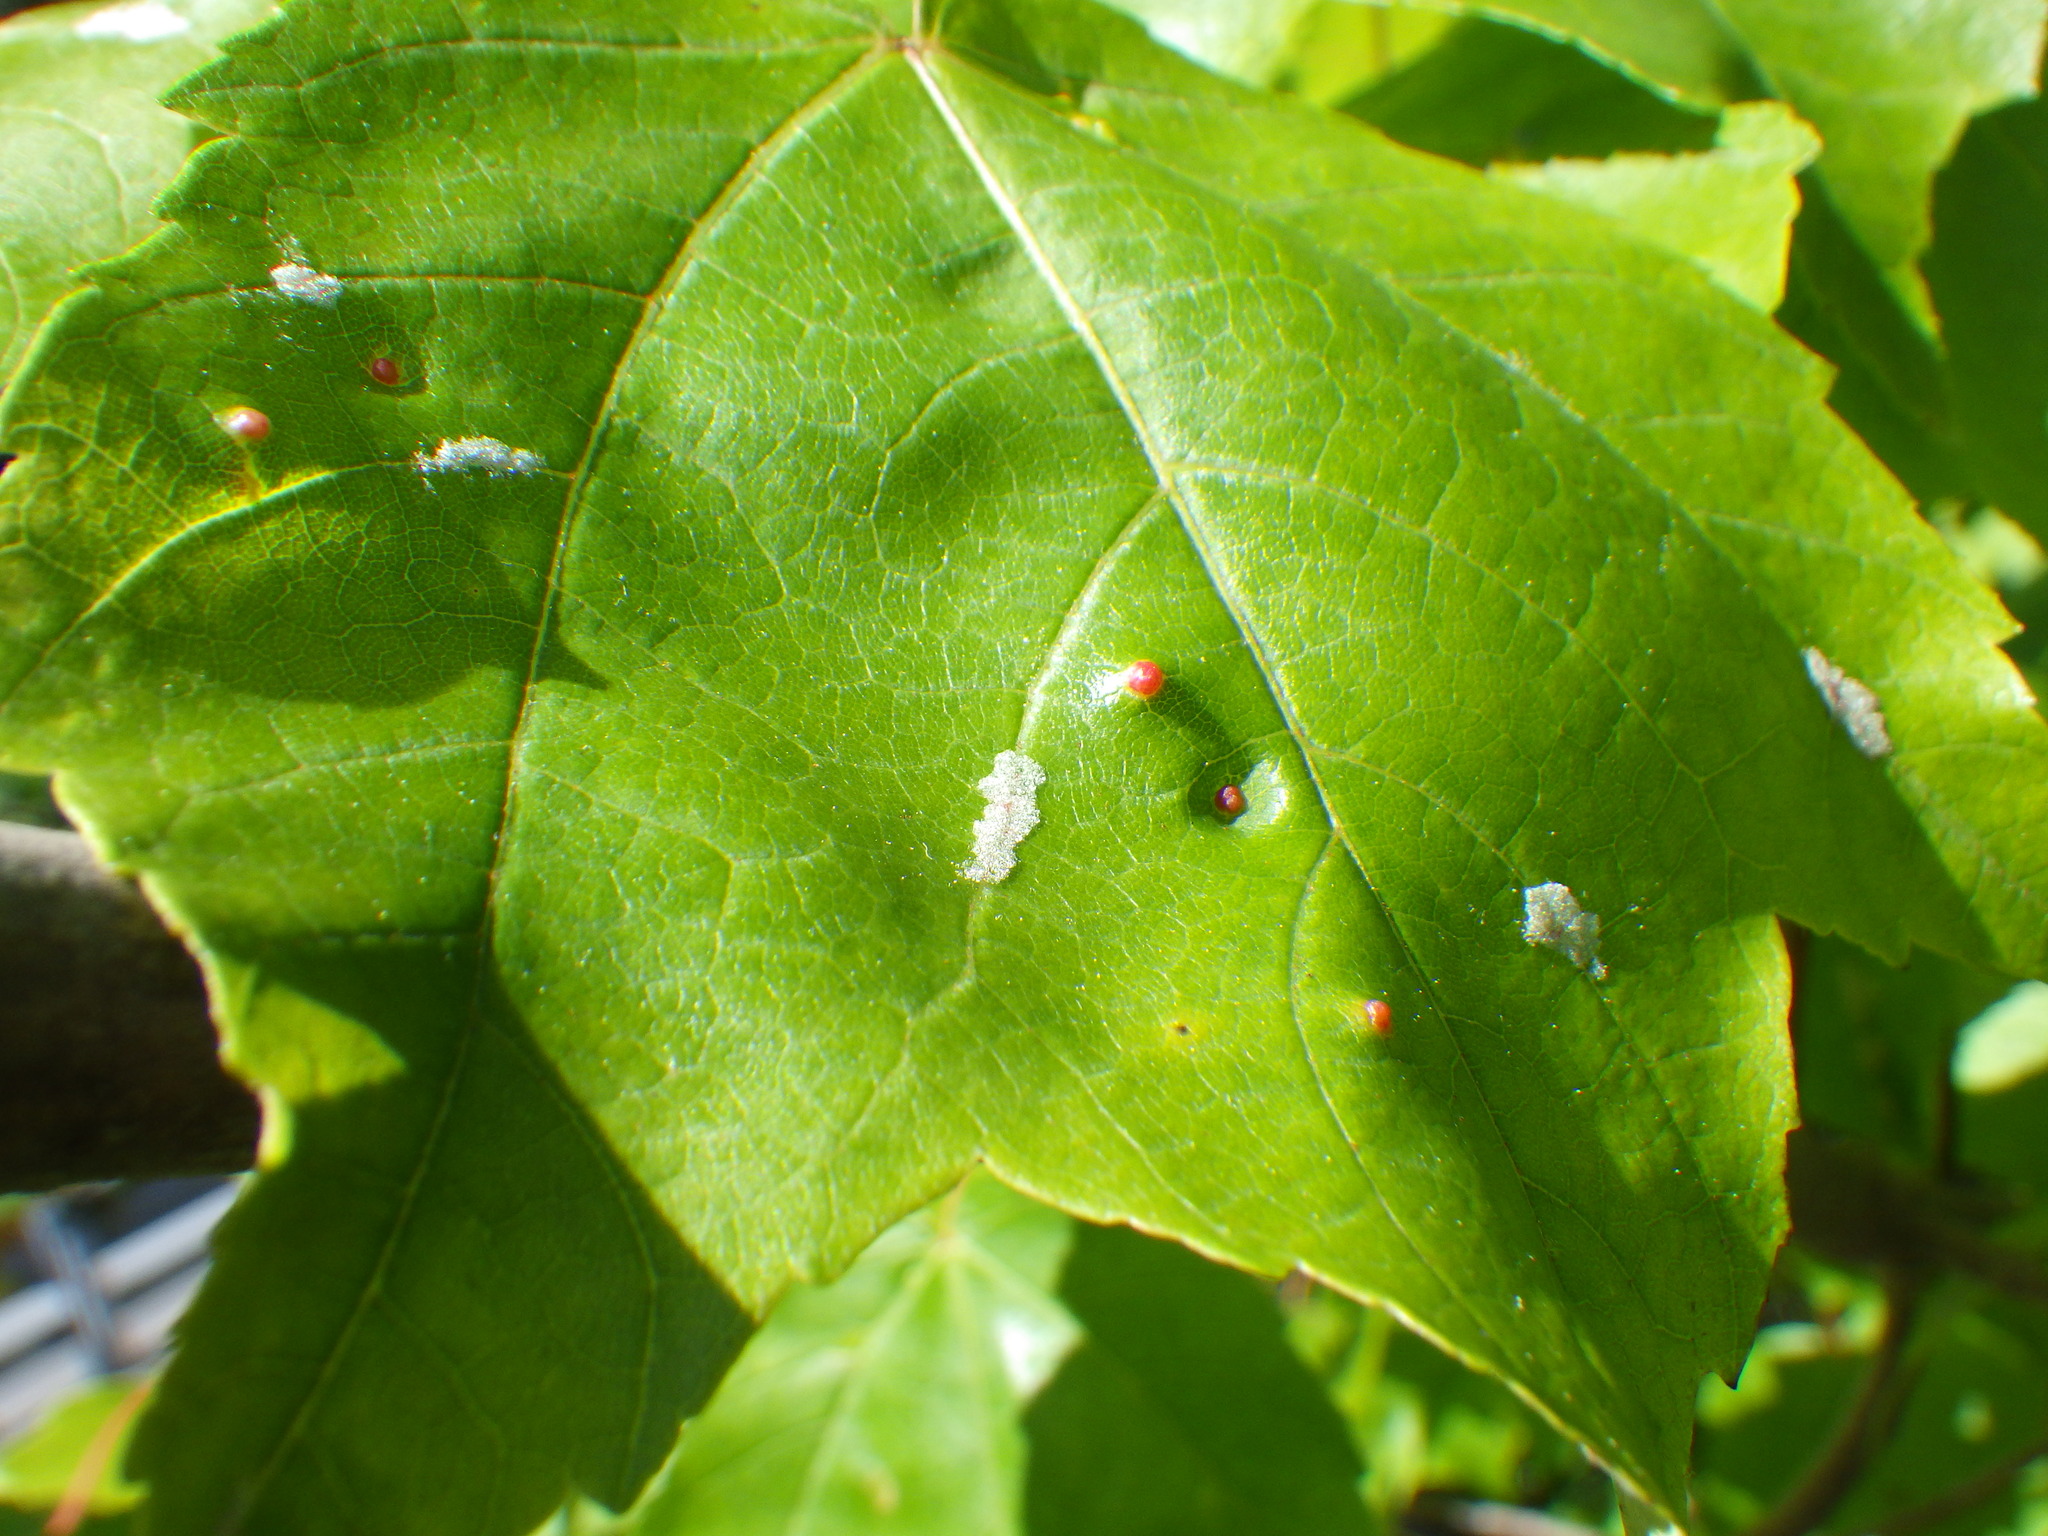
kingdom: Animalia
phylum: Arthropoda
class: Arachnida
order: Trombidiformes
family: Eriophyidae
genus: Vasates
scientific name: Vasates quadripedes
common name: Maple bladder gall mite
